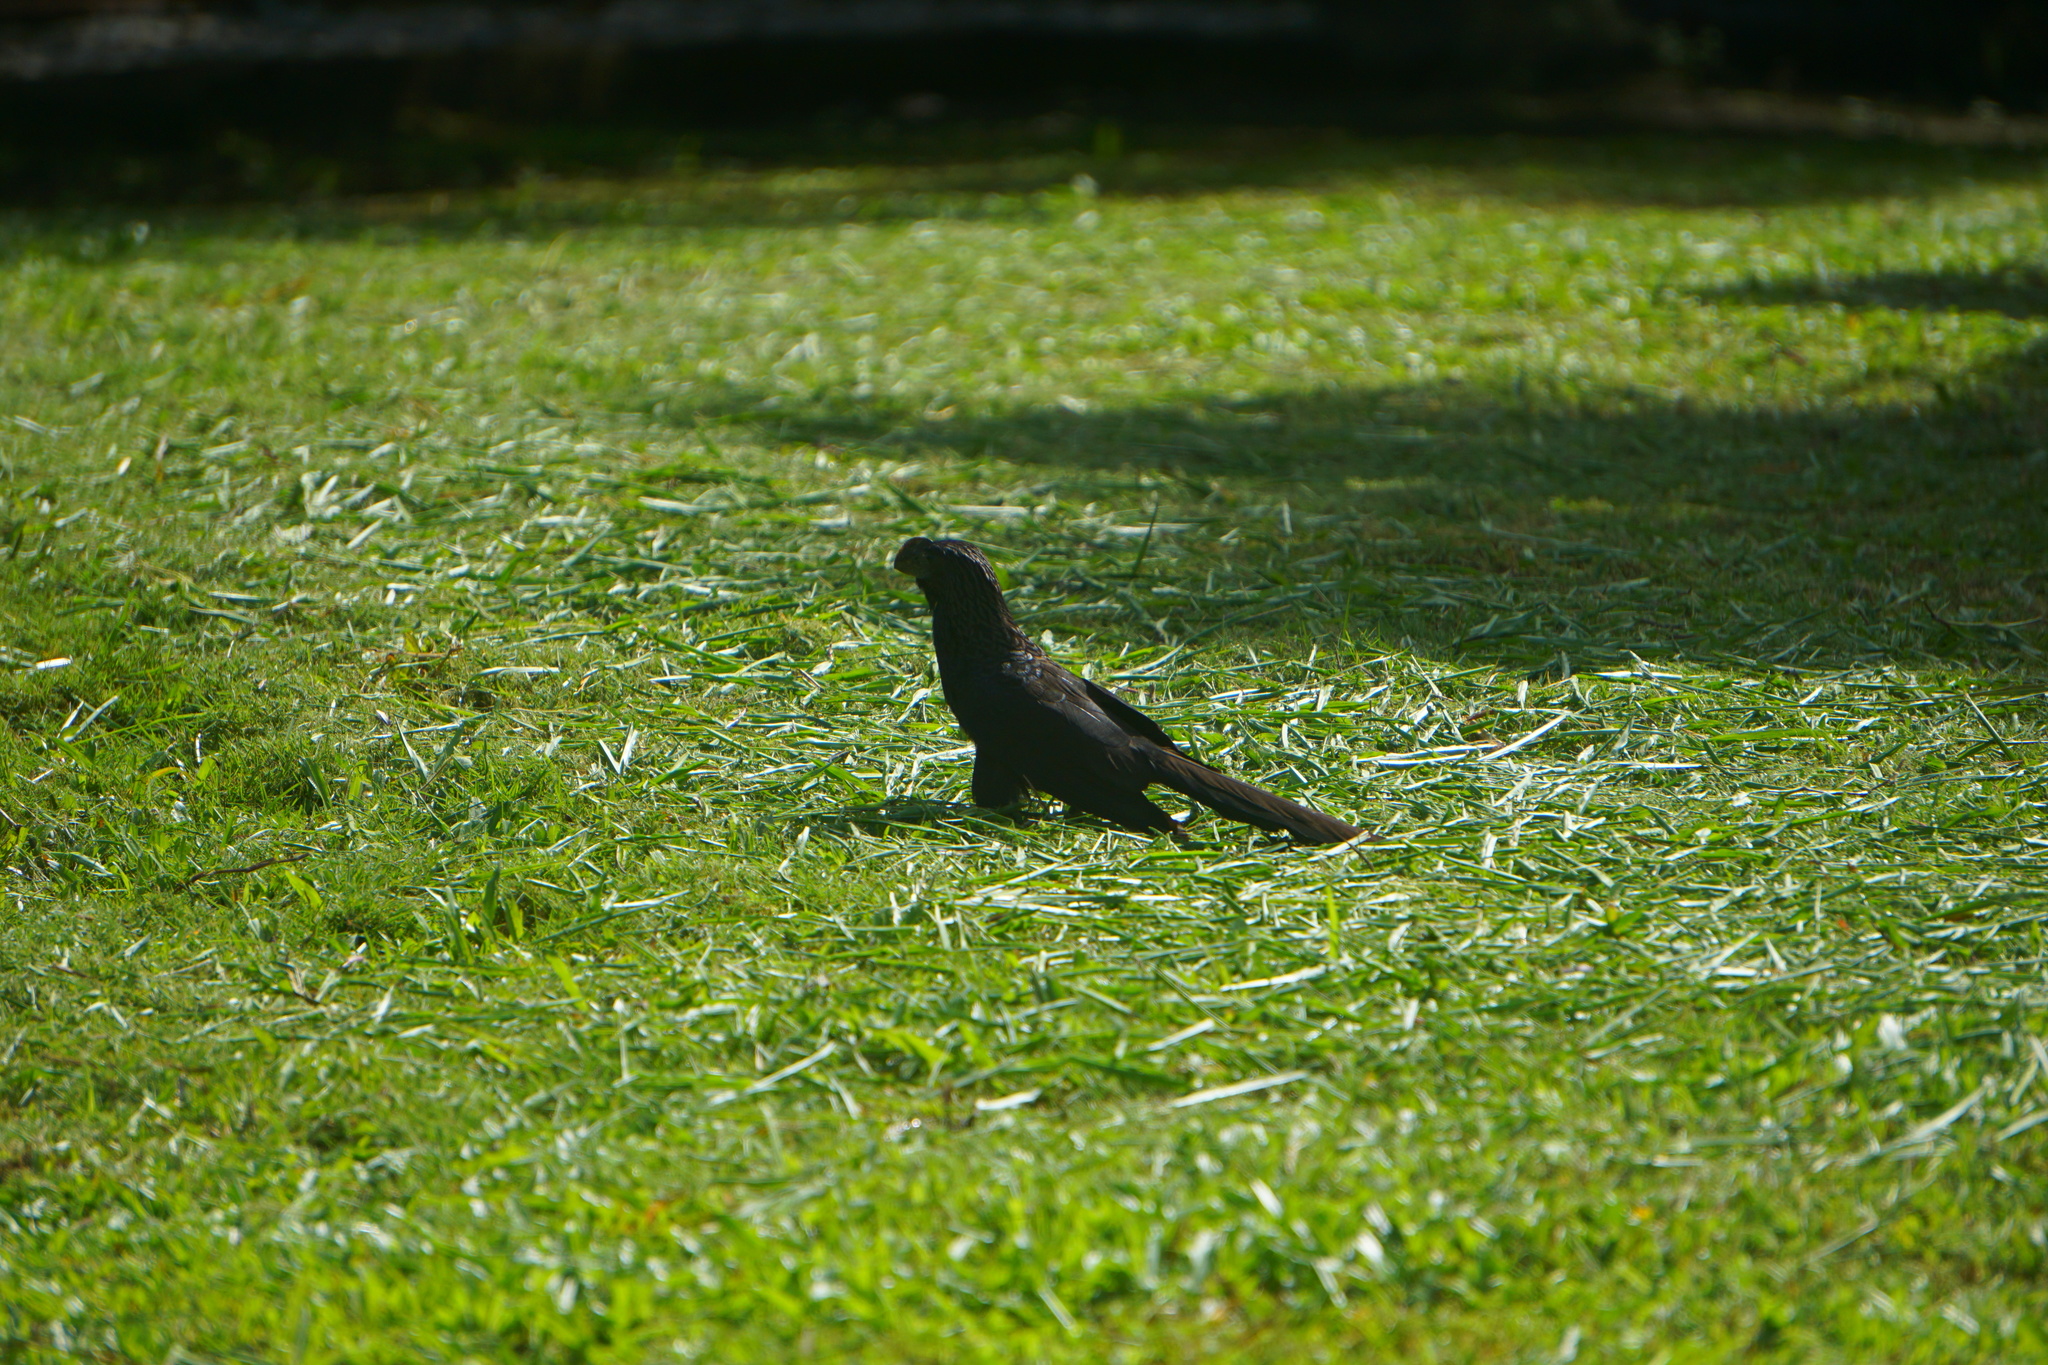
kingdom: Animalia
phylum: Chordata
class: Aves
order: Cuculiformes
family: Cuculidae
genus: Crotophaga
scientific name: Crotophaga ani
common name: Smooth-billed ani
